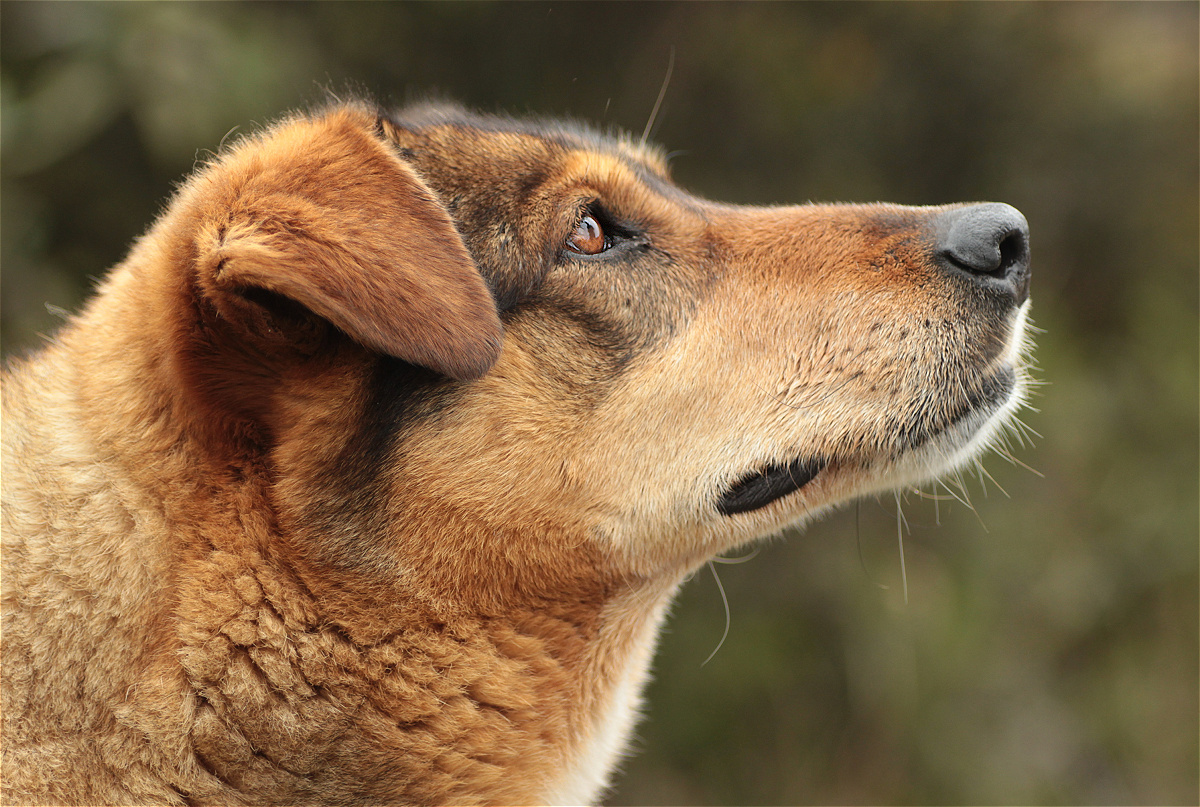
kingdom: Animalia
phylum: Chordata
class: Mammalia
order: Carnivora
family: Canidae
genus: Canis
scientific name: Canis lupus
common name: Gray wolf
